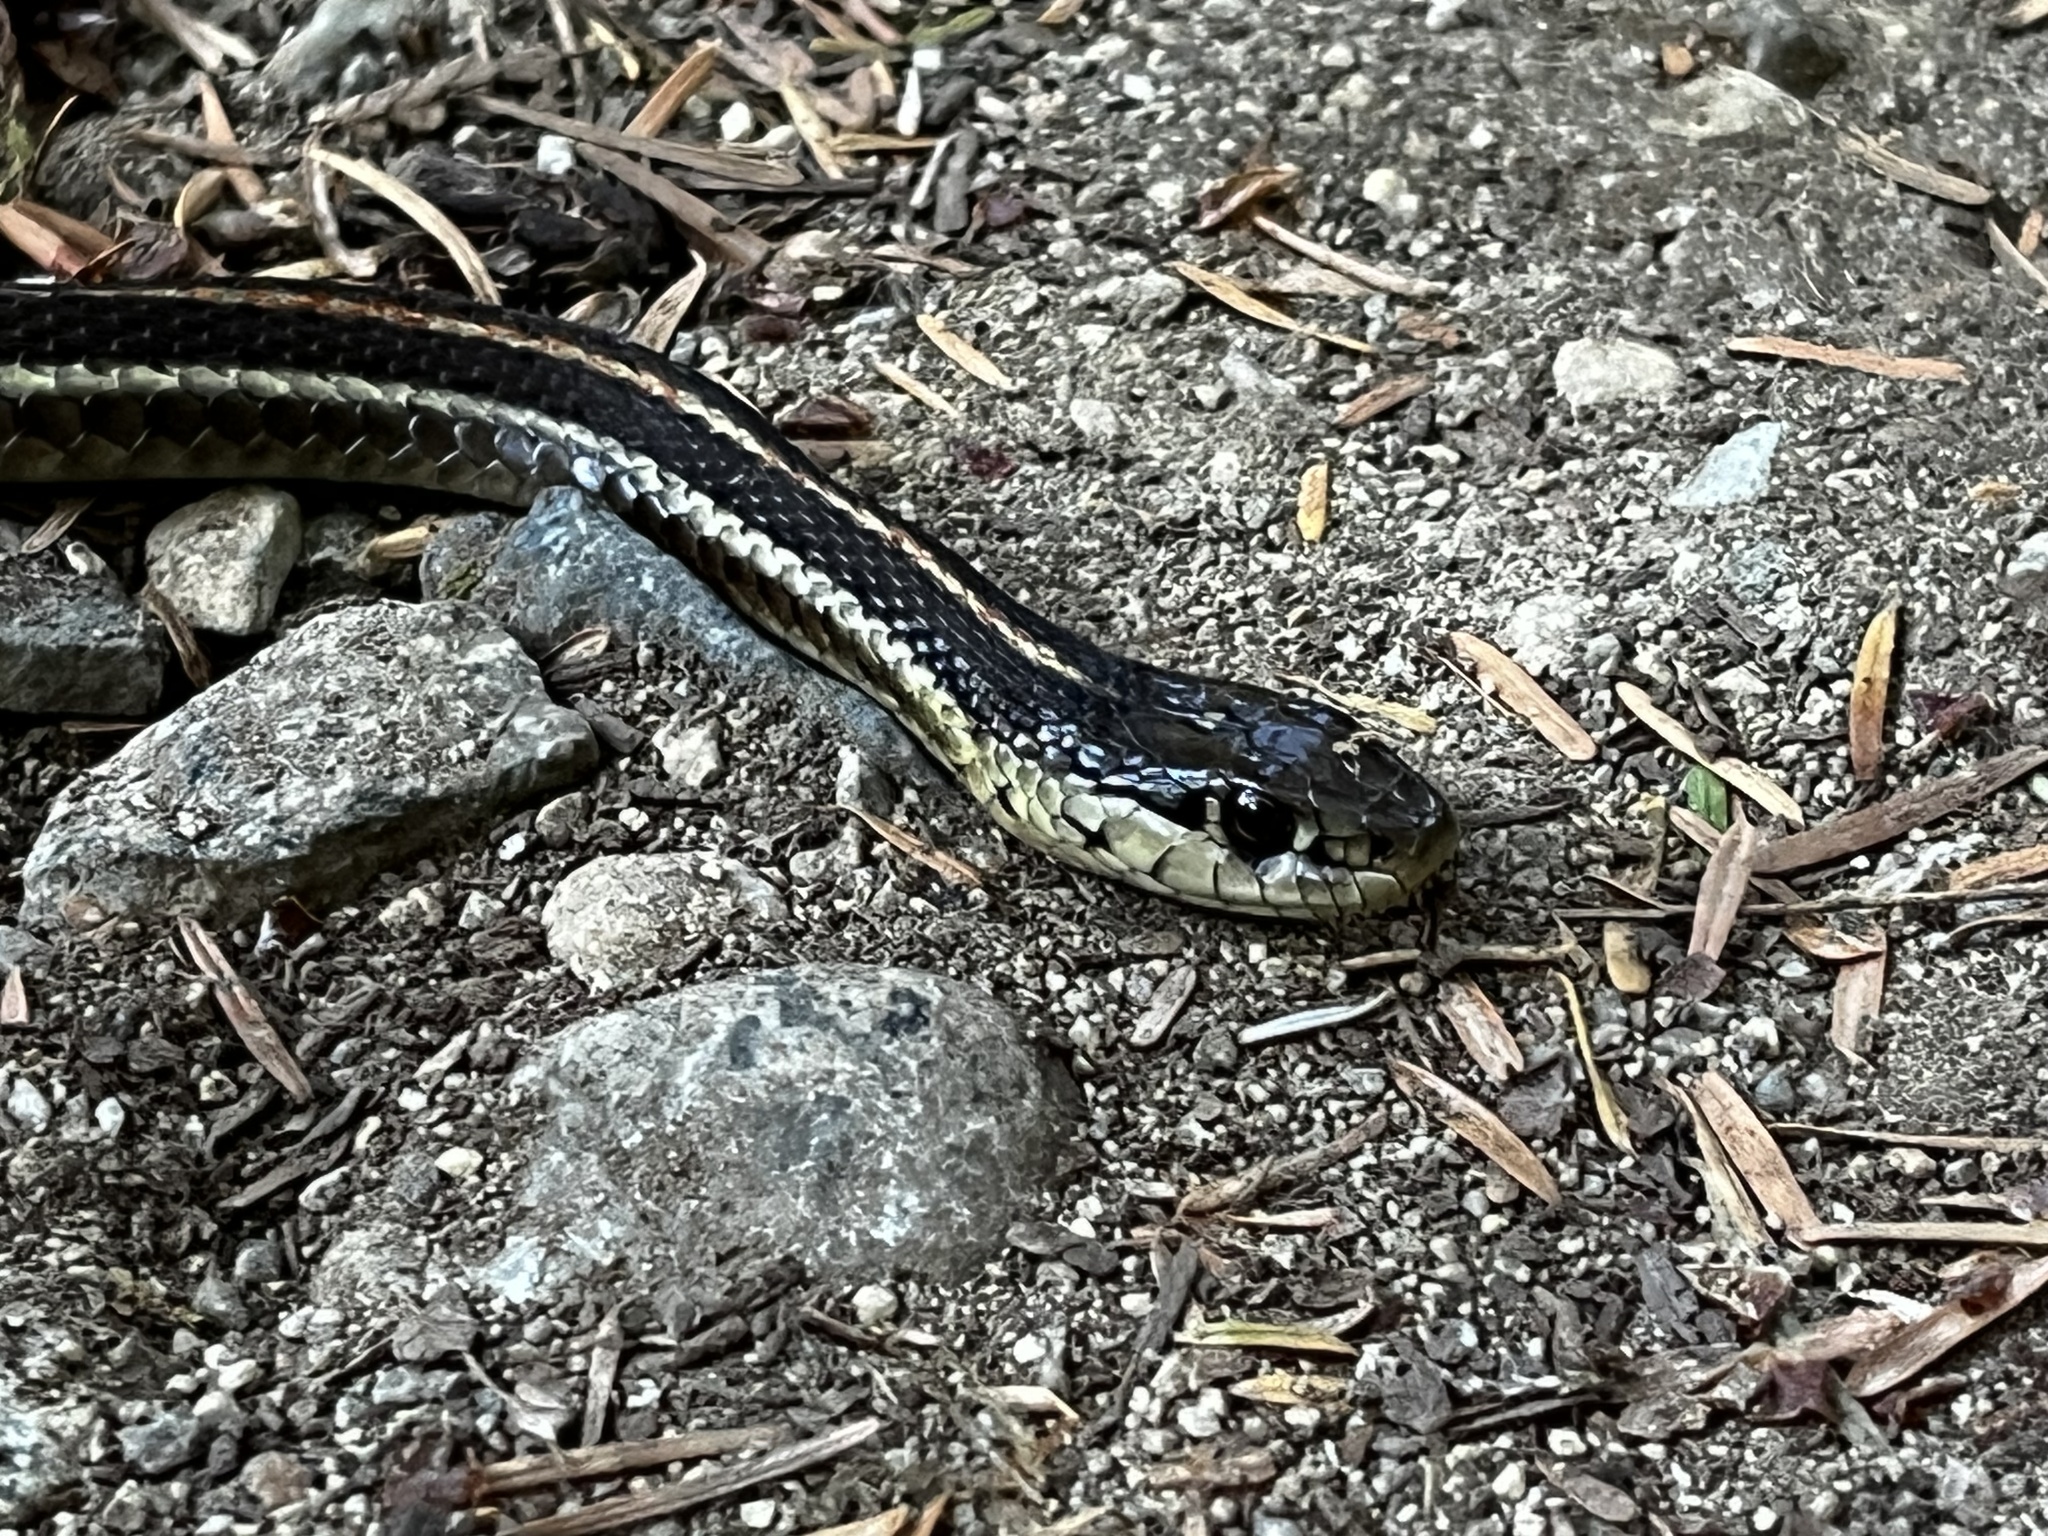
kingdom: Animalia
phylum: Chordata
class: Squamata
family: Colubridae
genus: Thamnophis
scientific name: Thamnophis ordinoides
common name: Northwestern garter snake
